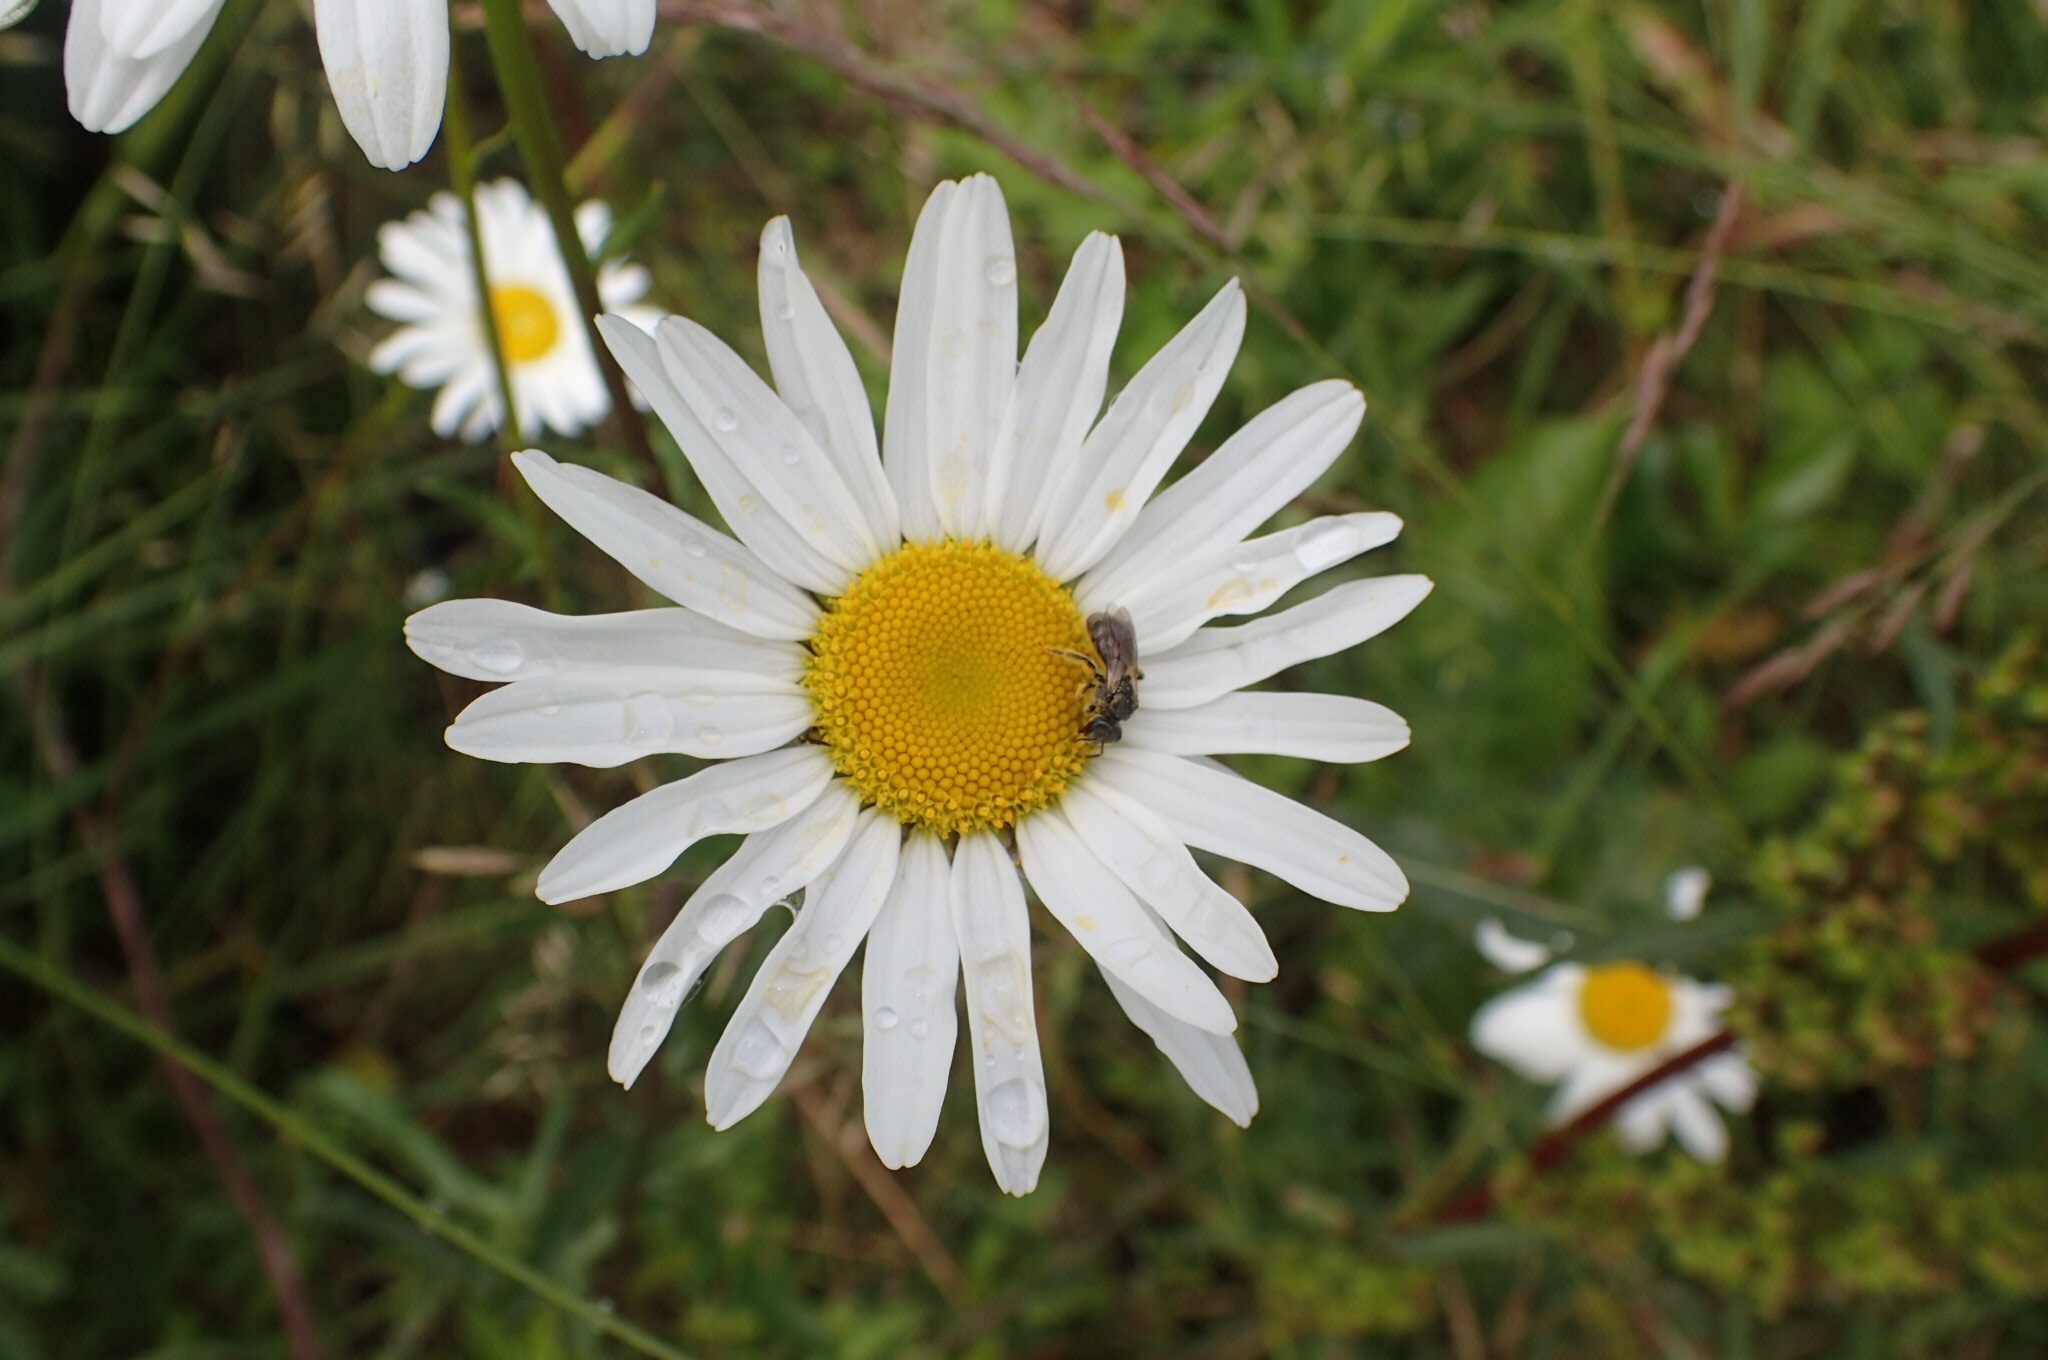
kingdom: Plantae
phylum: Tracheophyta
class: Magnoliopsida
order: Asterales
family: Asteraceae
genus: Leucanthemum
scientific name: Leucanthemum vulgare
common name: Oxeye daisy
